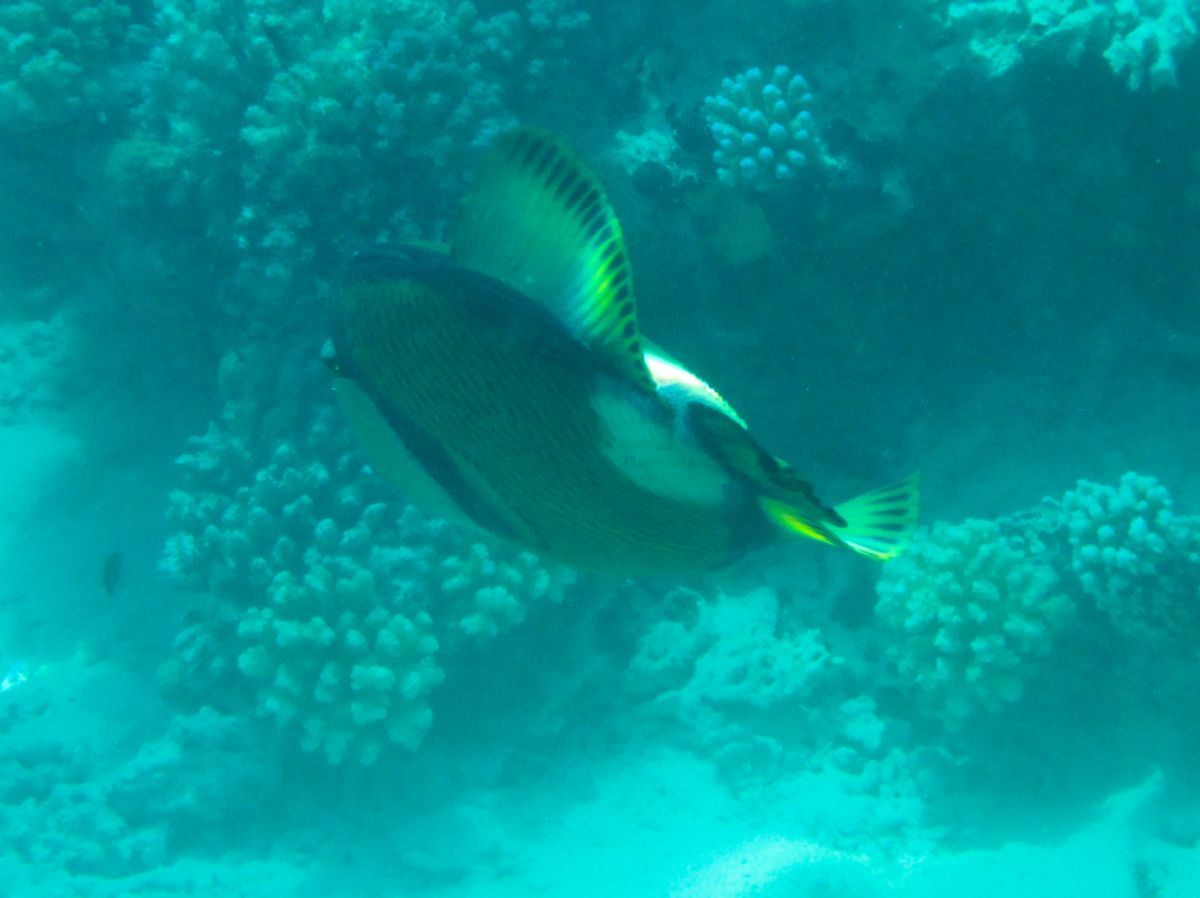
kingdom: Animalia
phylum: Chordata
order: Tetraodontiformes
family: Balistidae
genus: Balistoides
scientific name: Balistoides viridescens
